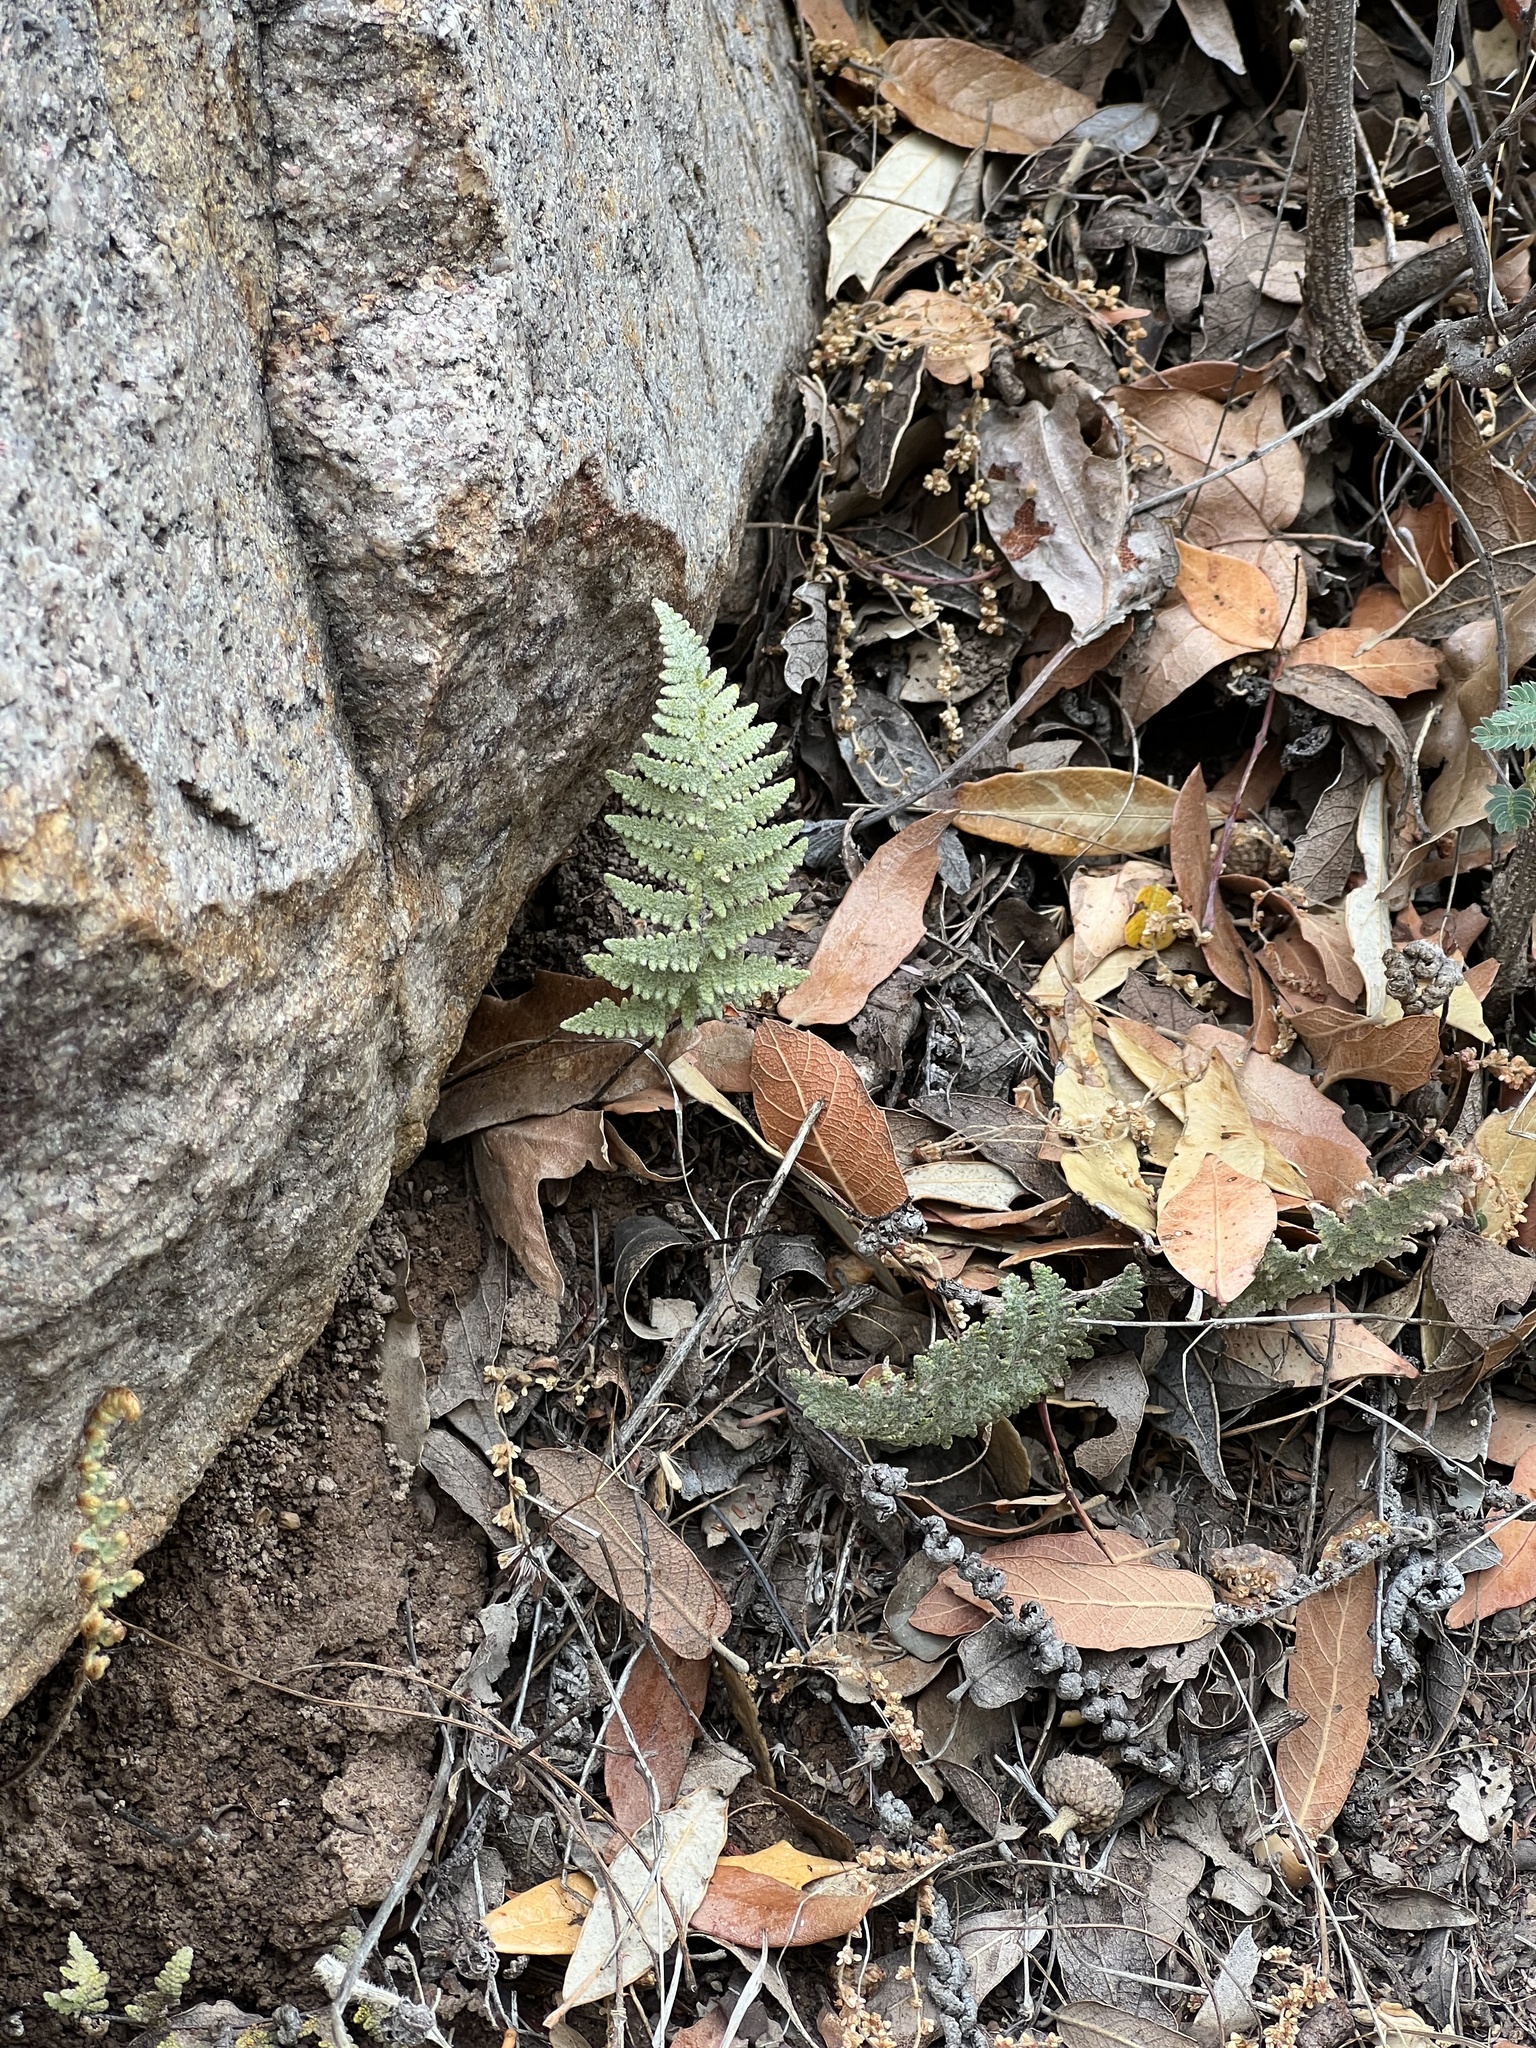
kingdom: Plantae
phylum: Tracheophyta
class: Polypodiopsida
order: Polypodiales
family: Pteridaceae
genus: Myriopteris
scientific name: Myriopteris lindheimeri
